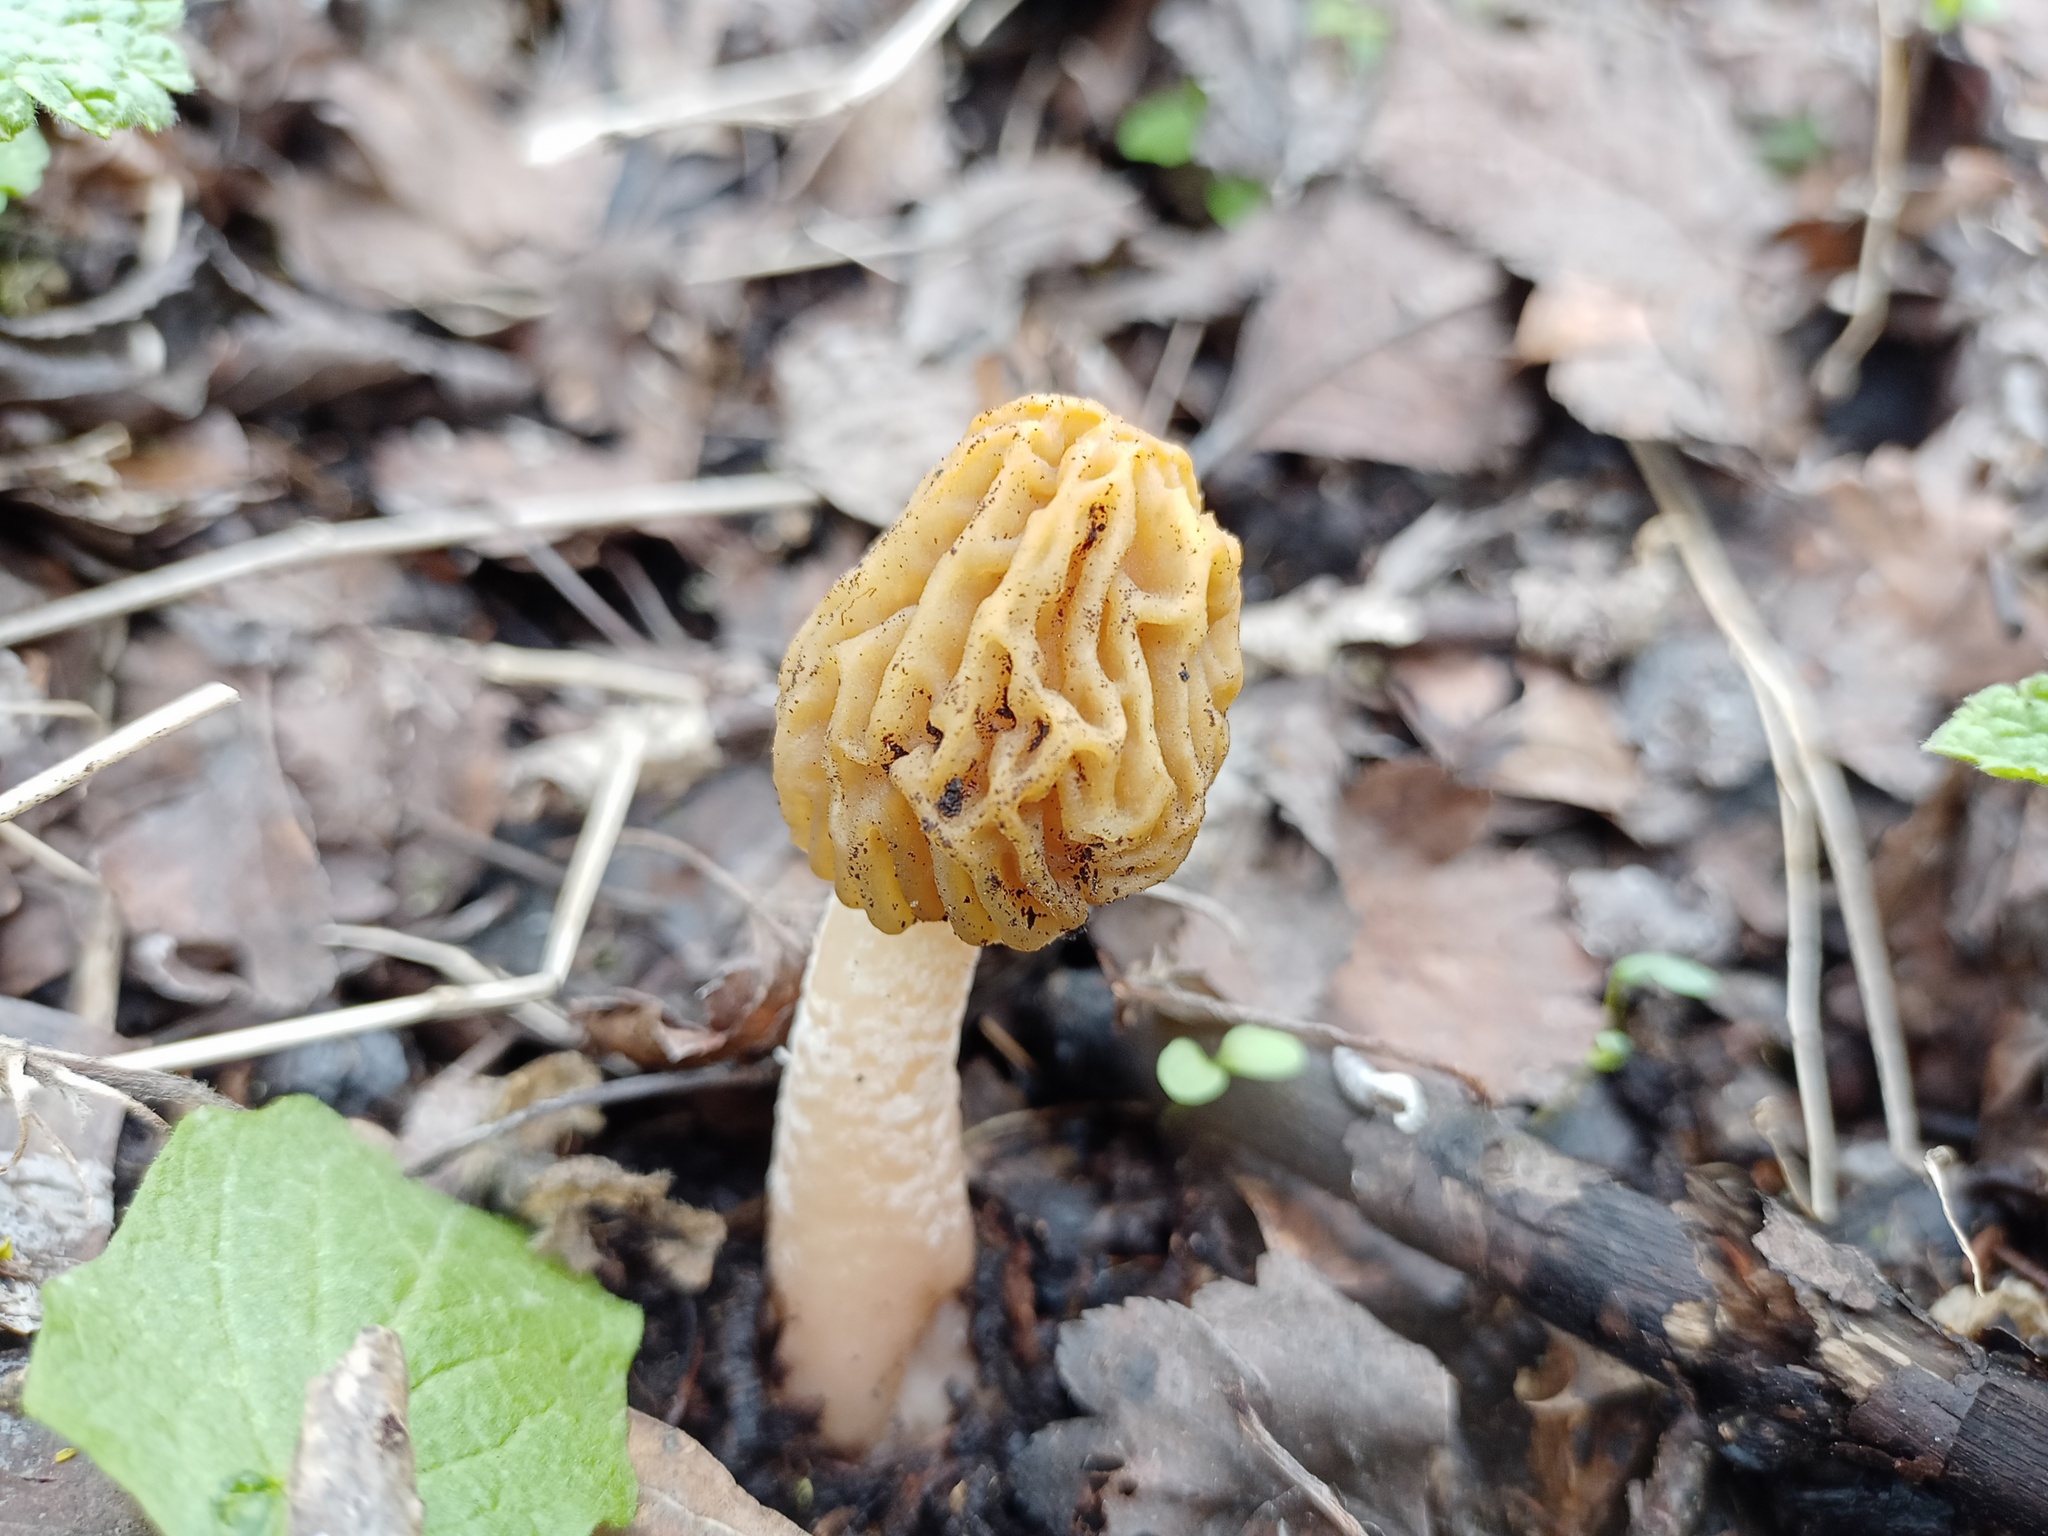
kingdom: Fungi
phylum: Ascomycota
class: Pezizomycetes
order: Pezizales
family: Morchellaceae
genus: Verpa
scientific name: Verpa bohemica
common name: Wrinkled thimble morel
